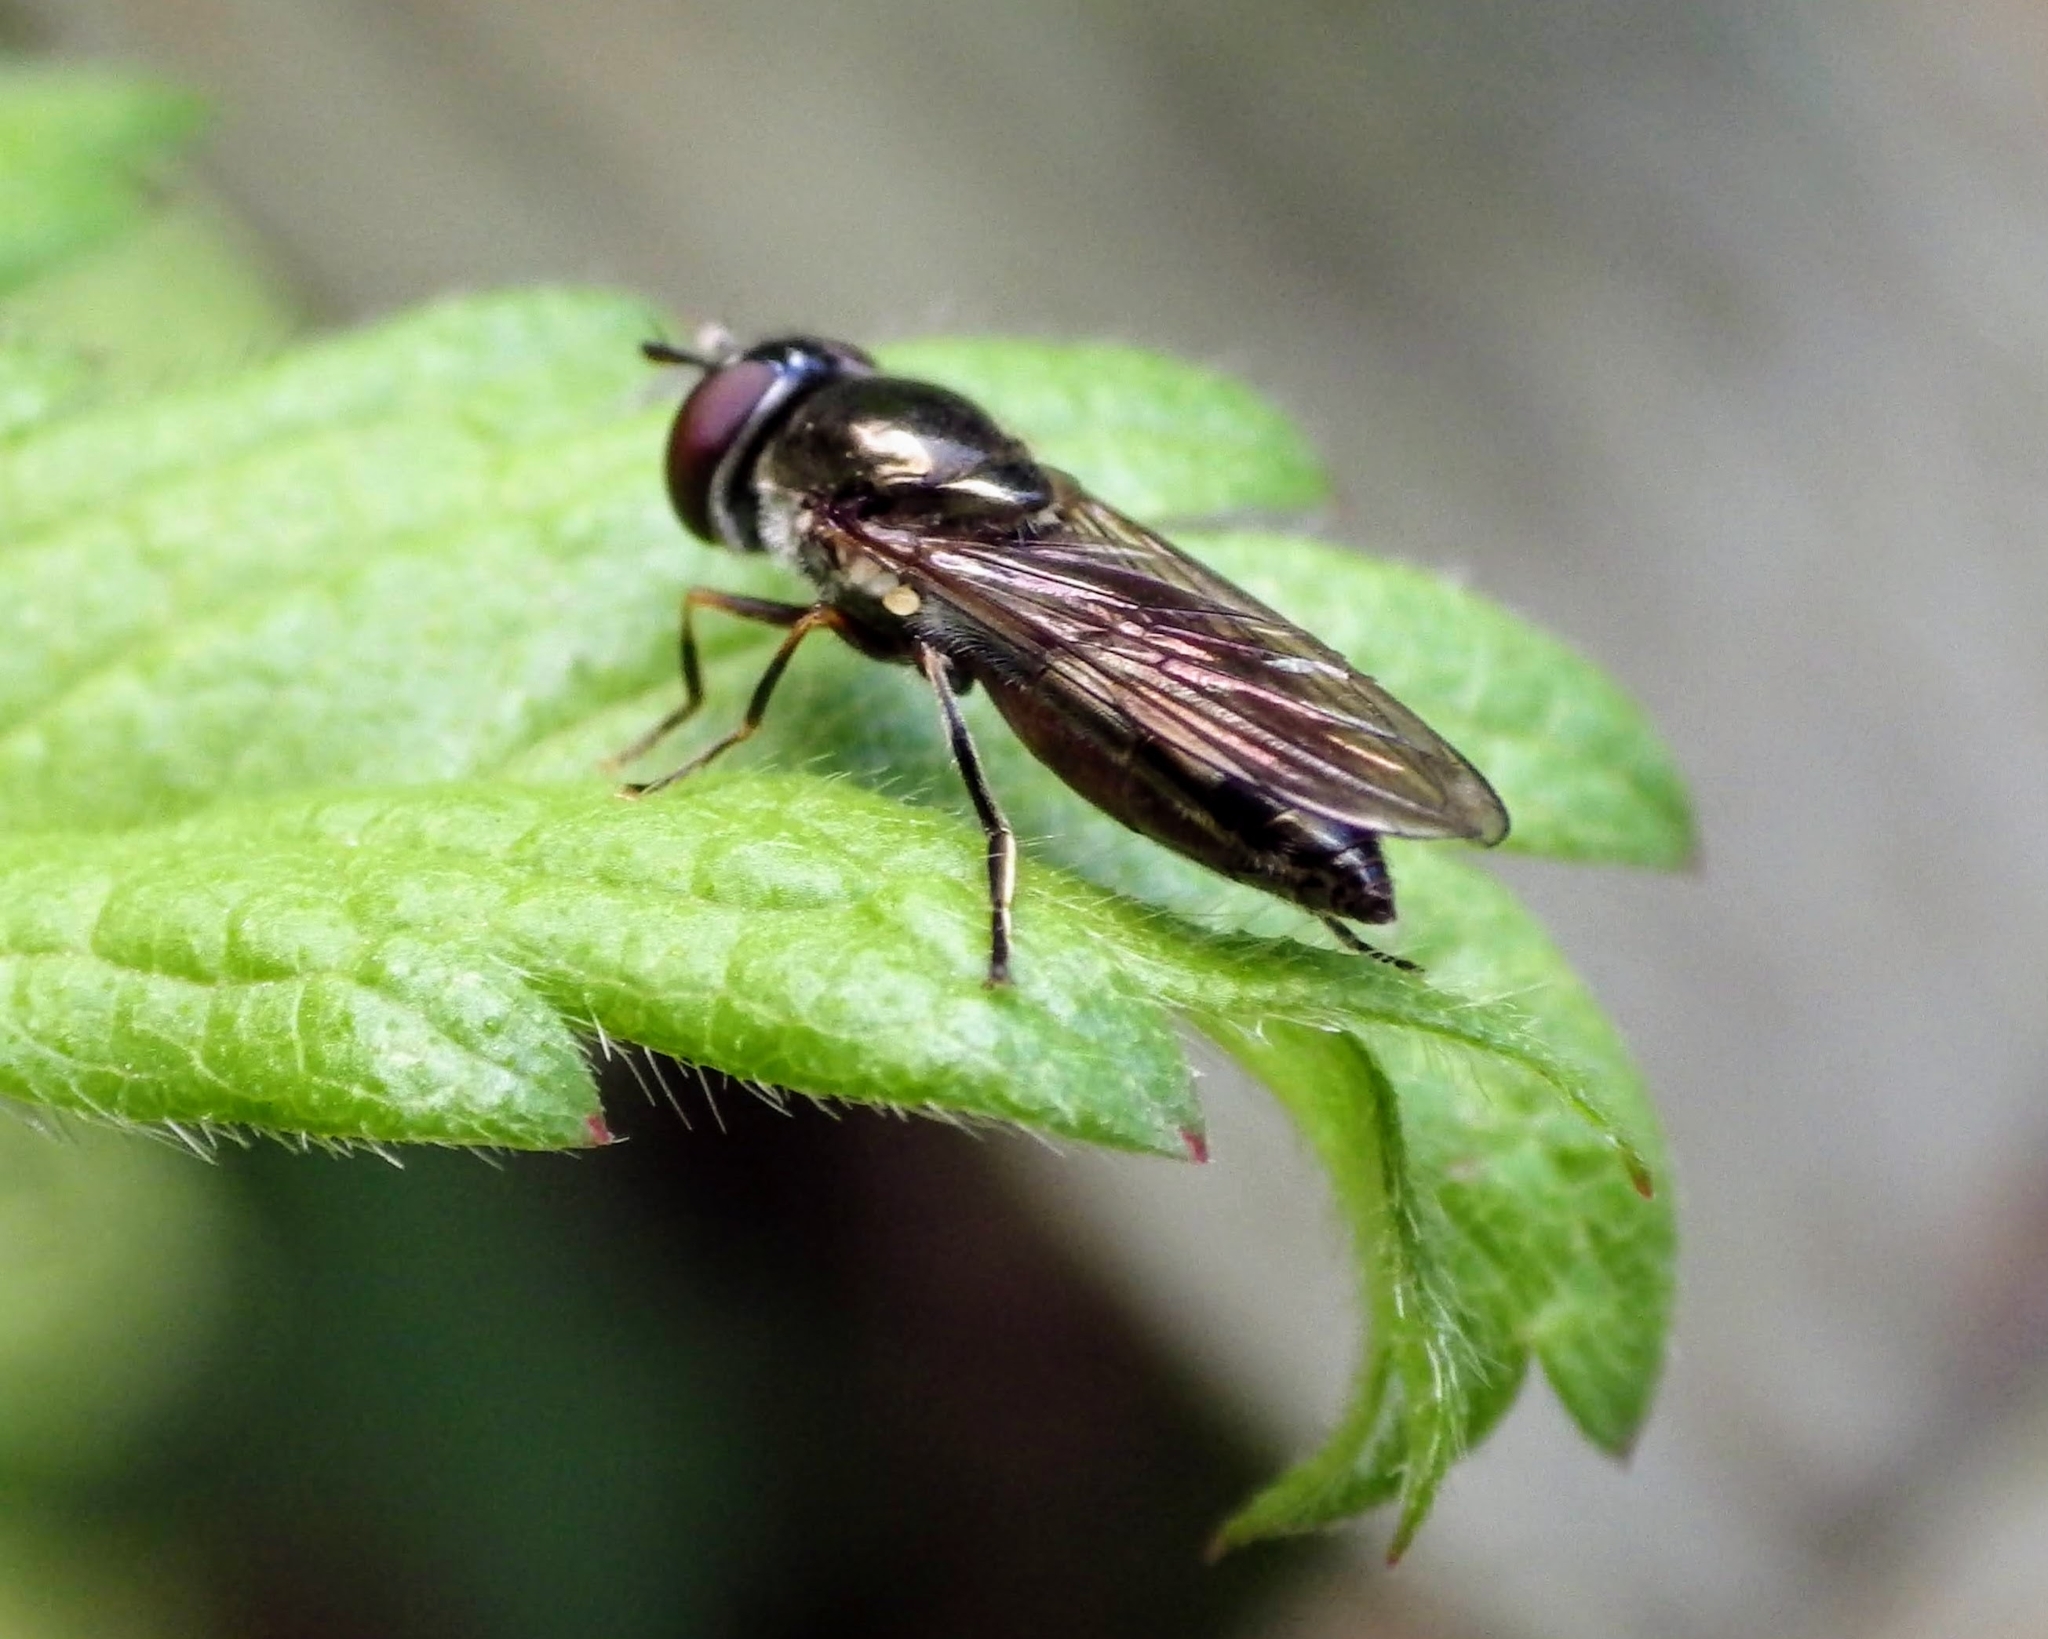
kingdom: Animalia
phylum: Arthropoda
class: Insecta
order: Diptera
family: Syrphidae
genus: Platycheirus
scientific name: Platycheirus albimanus
